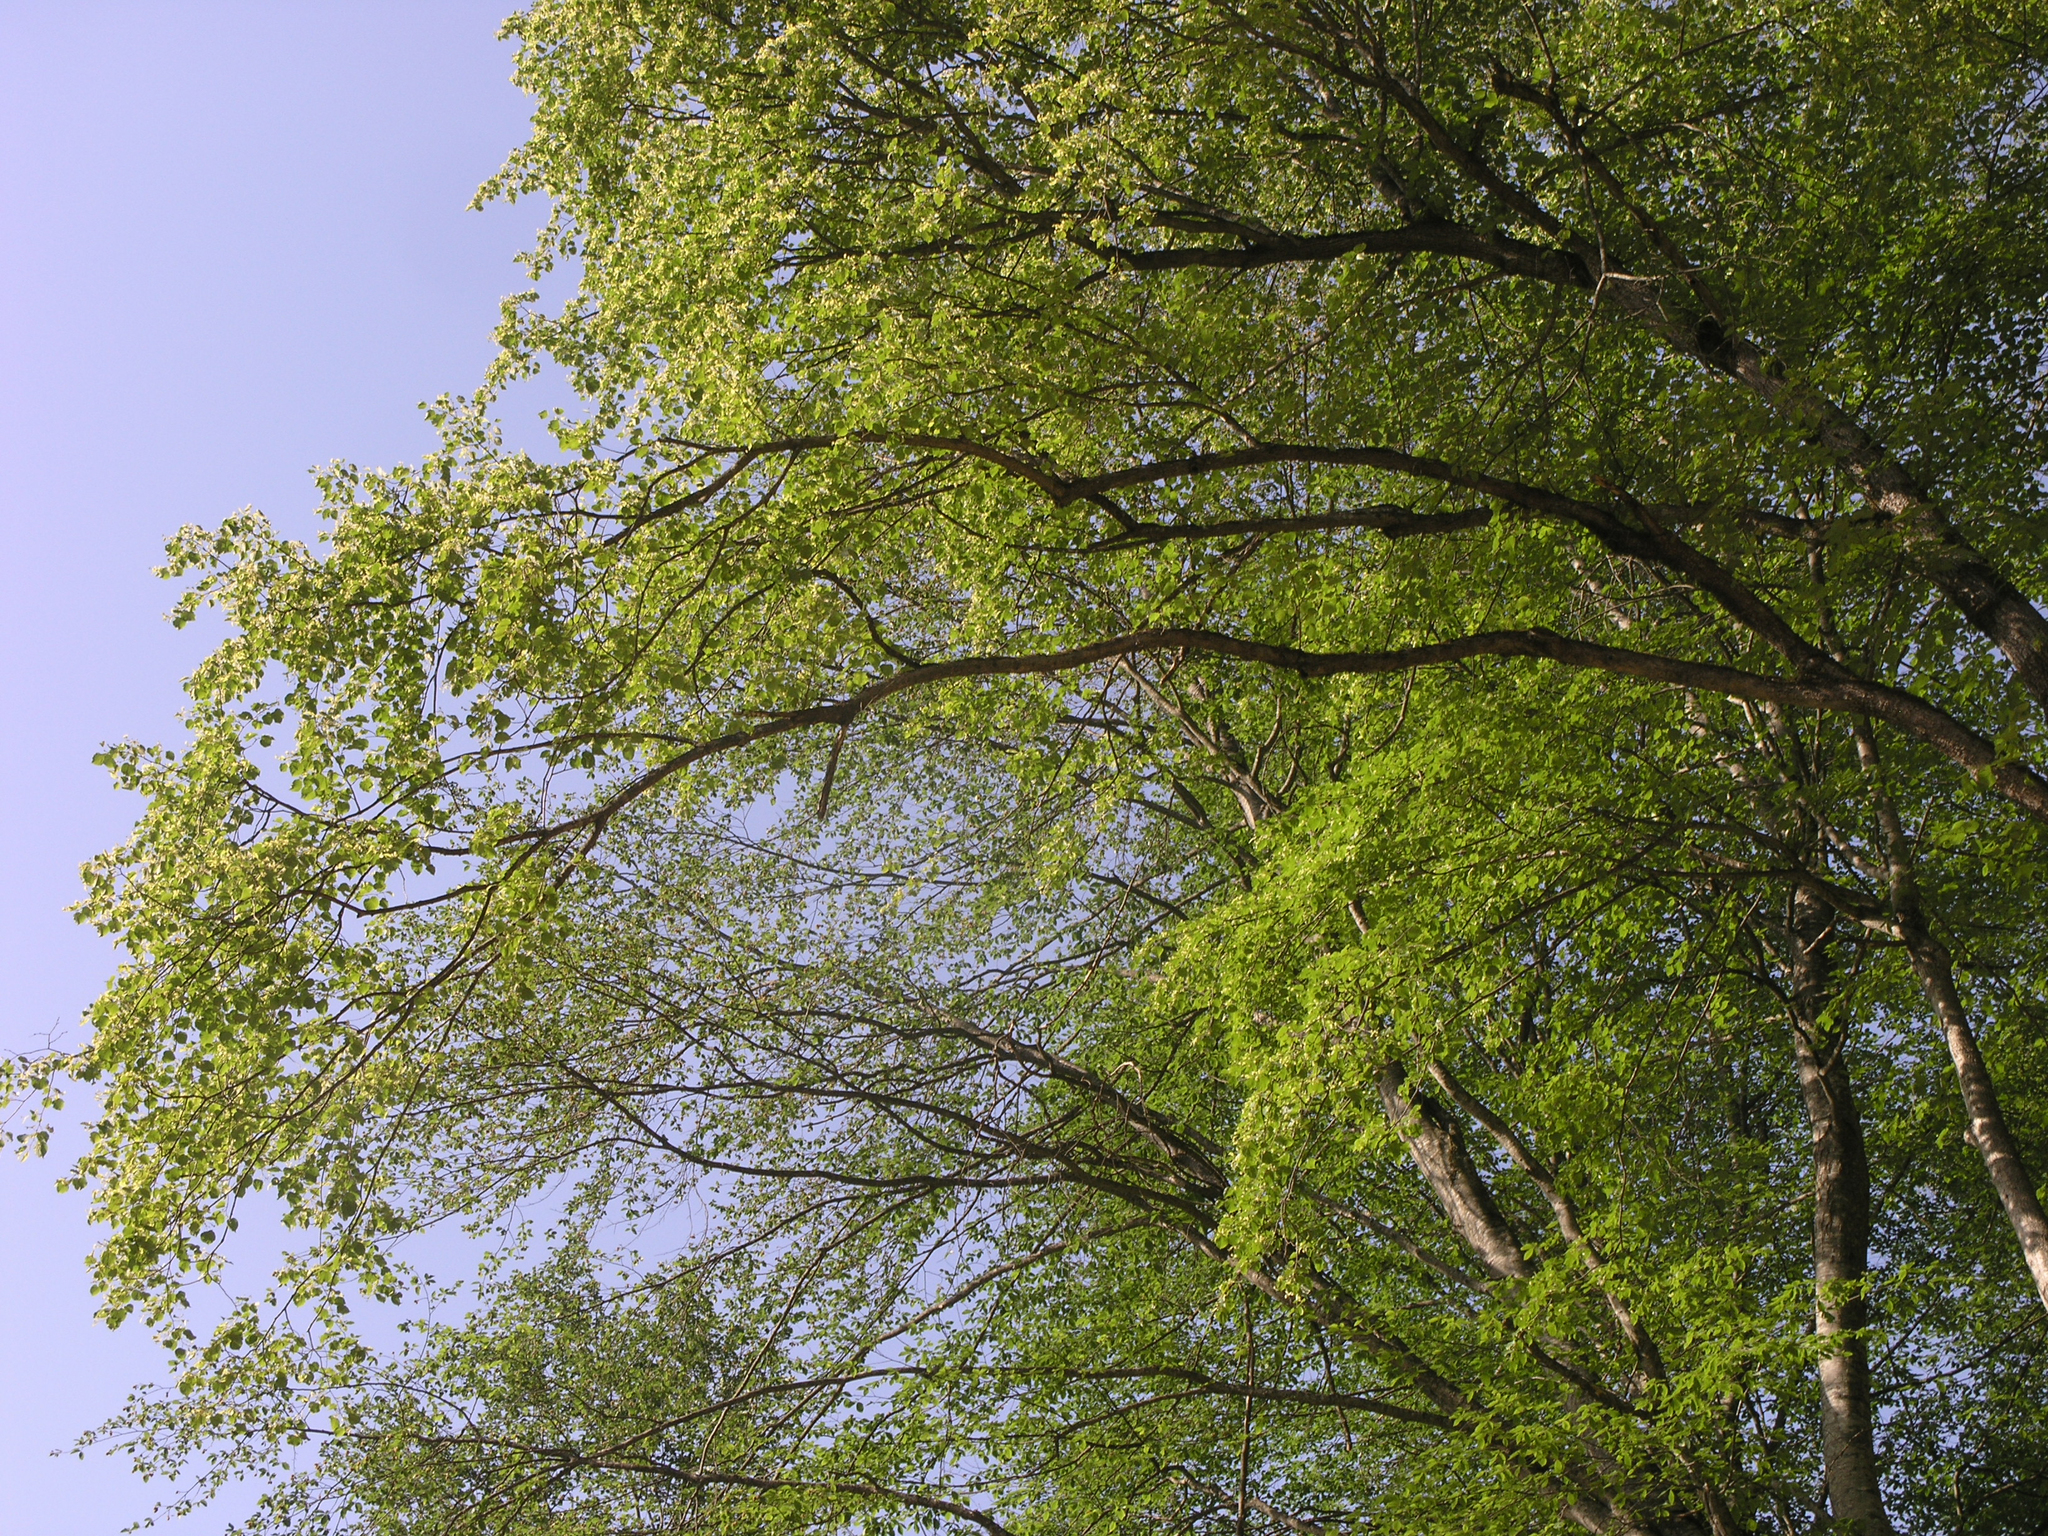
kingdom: Plantae
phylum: Tracheophyta
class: Magnoliopsida
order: Malvales
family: Malvaceae
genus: Tilia
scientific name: Tilia cordata
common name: Small-leaved lime
